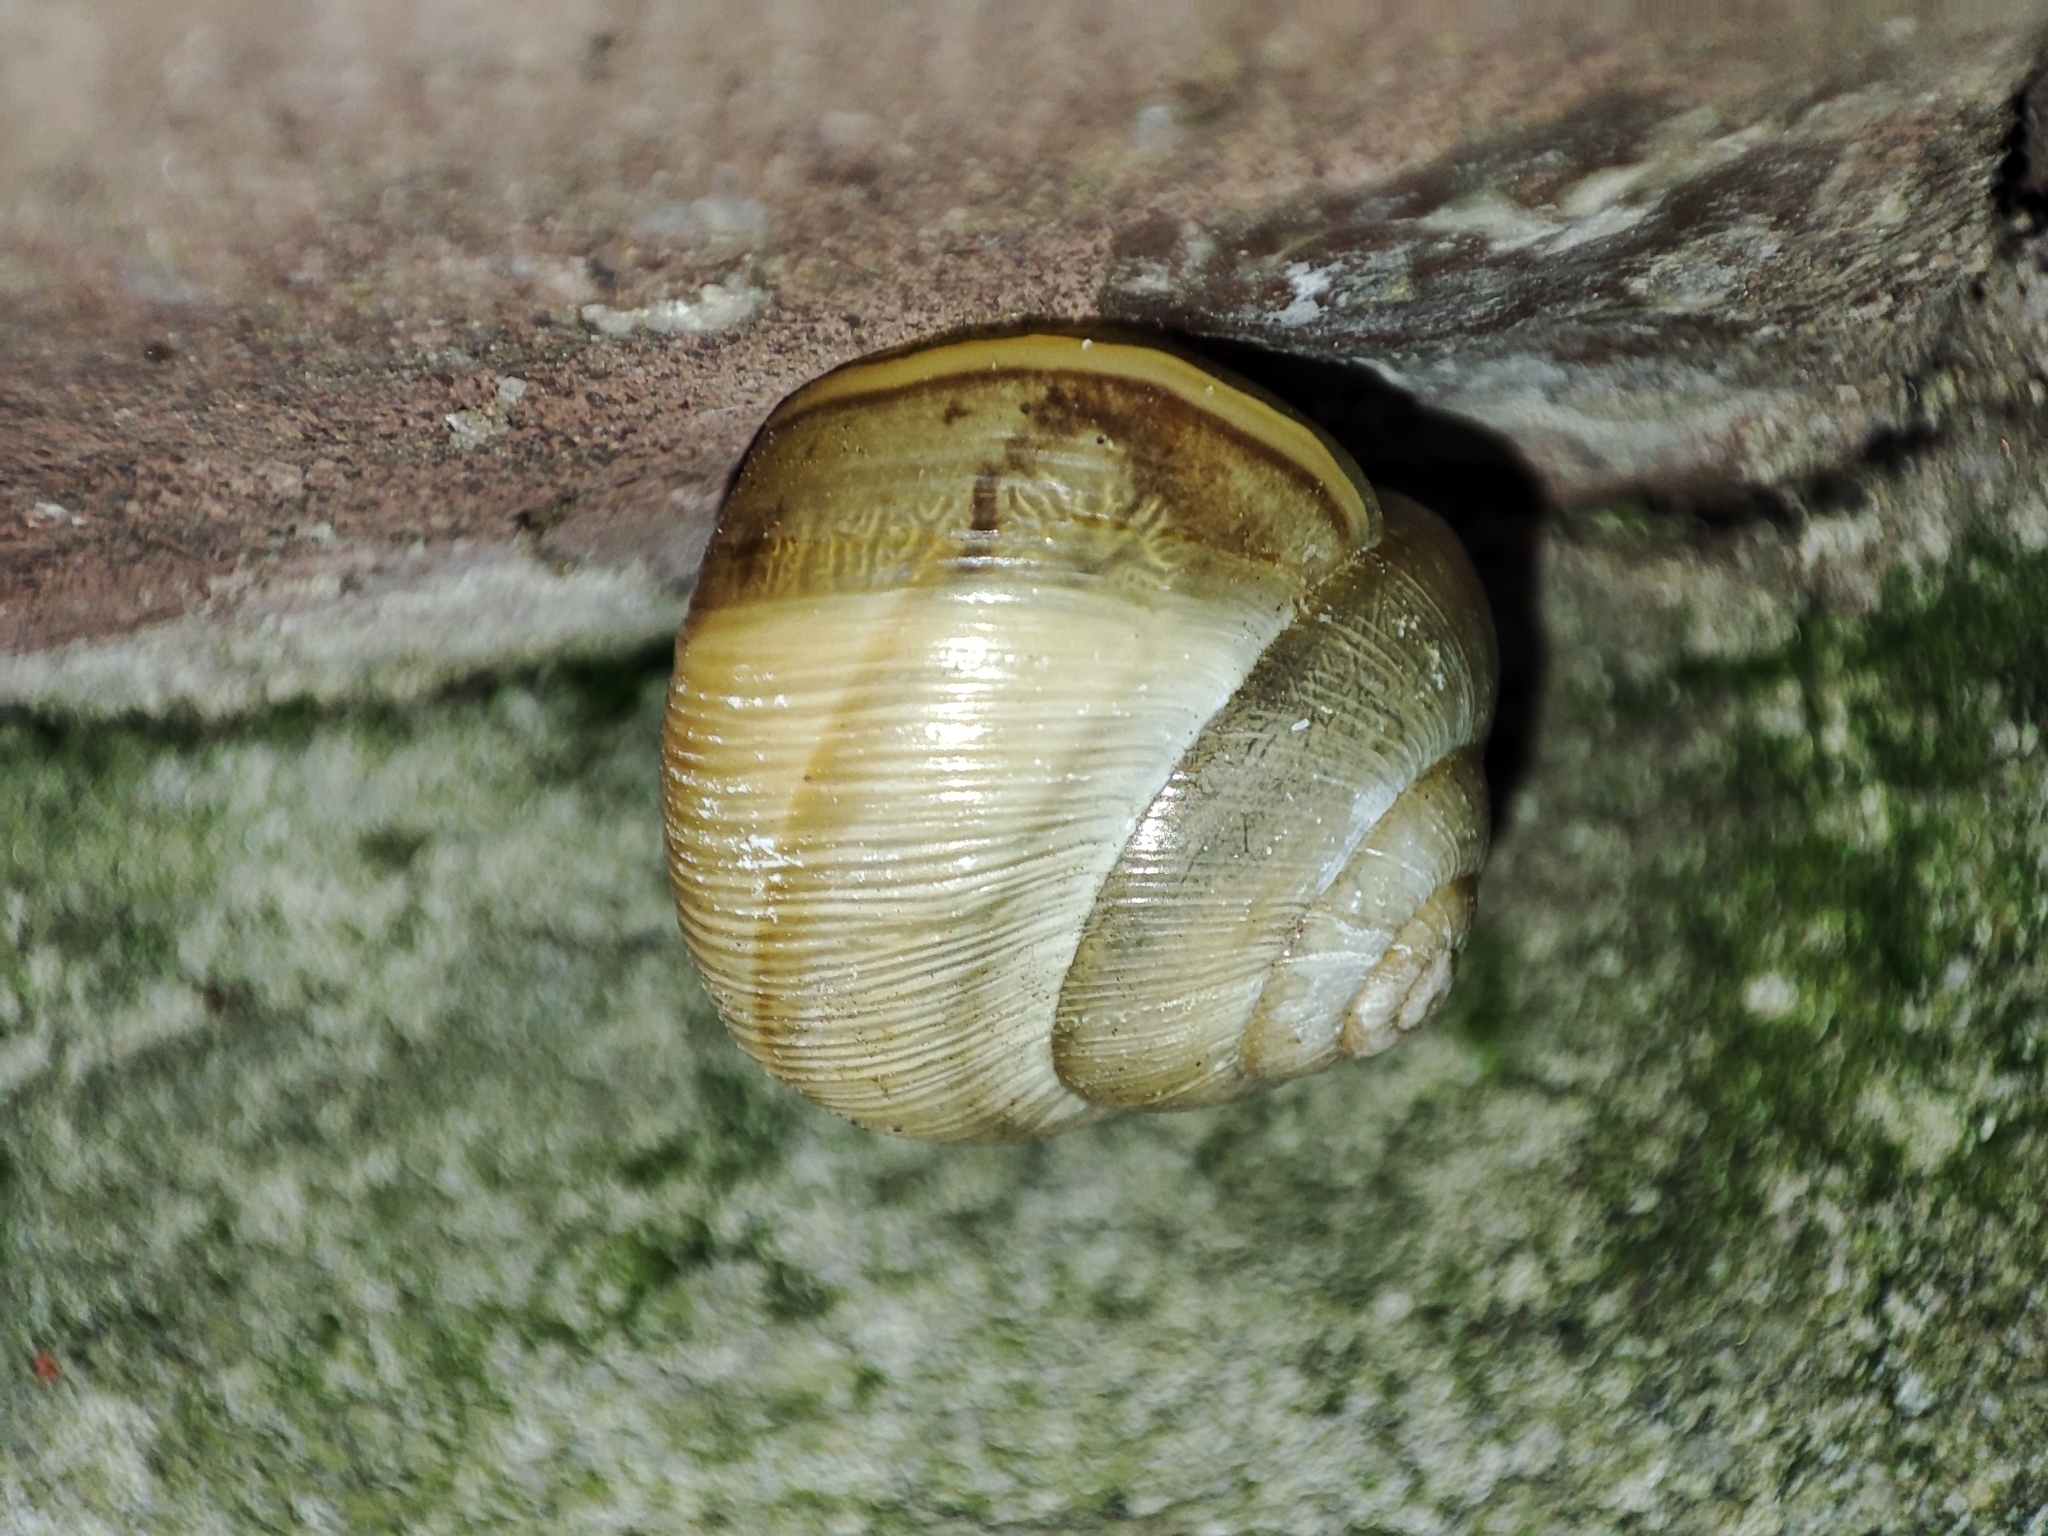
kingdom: Animalia
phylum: Mollusca
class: Gastropoda
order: Stylommatophora
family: Helicidae
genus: Caucasotachea
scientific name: Caucasotachea vindobonensis
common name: European helicid land snail
